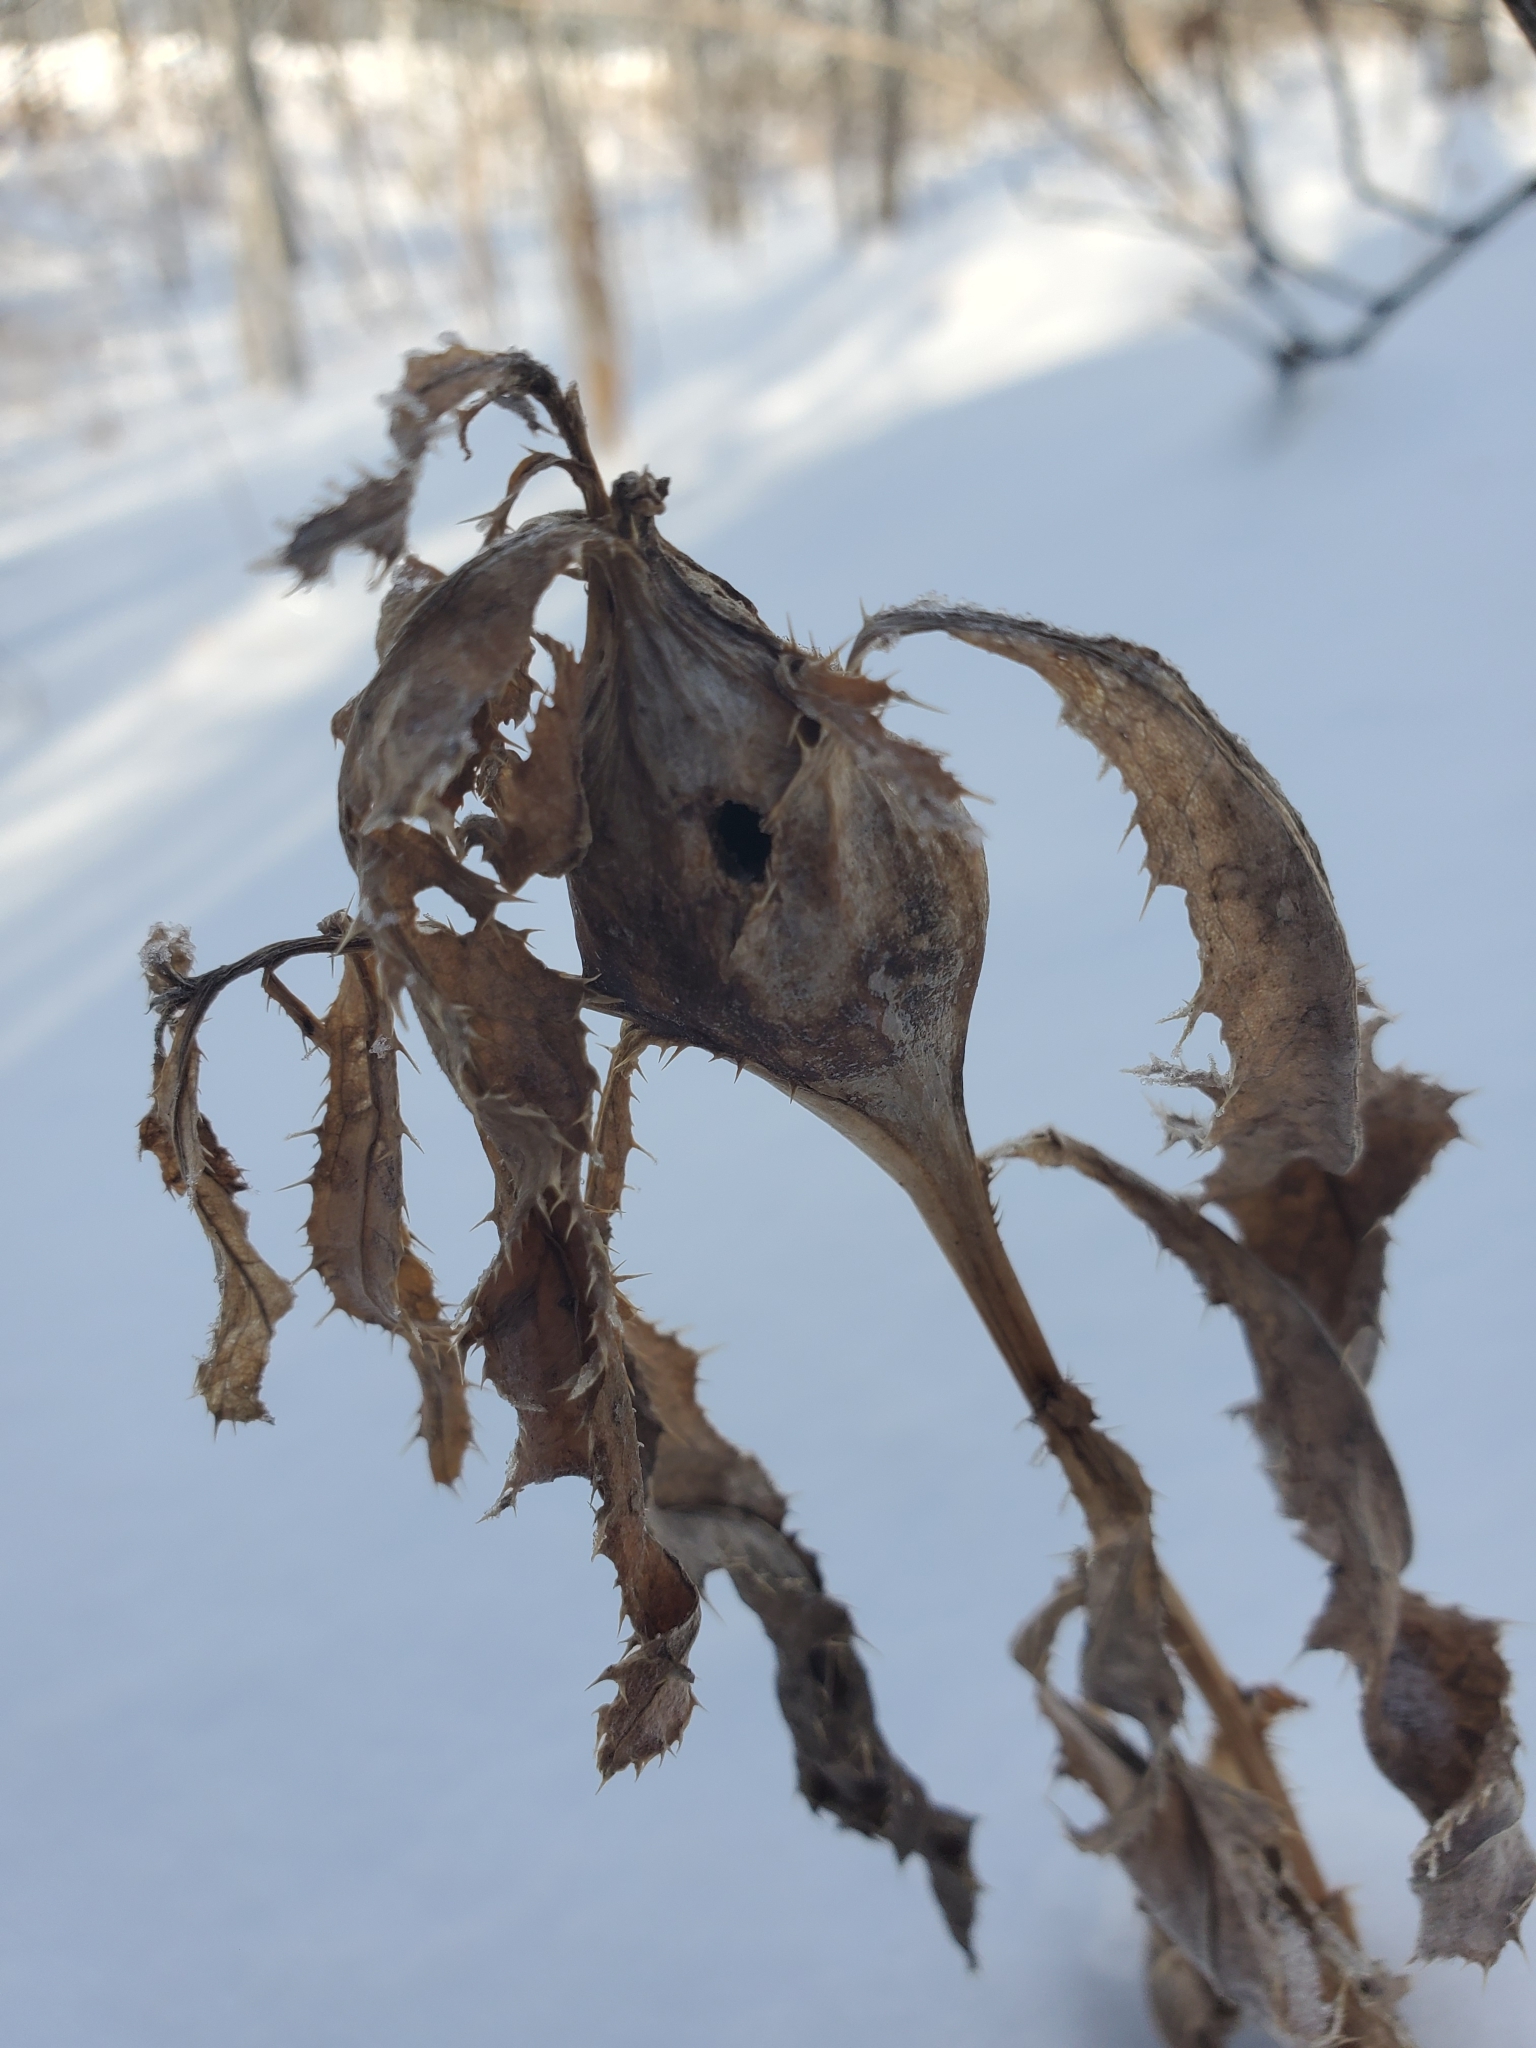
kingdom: Animalia
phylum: Arthropoda
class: Insecta
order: Diptera
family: Tephritidae
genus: Urophora
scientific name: Urophora cardui
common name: Fruit fly
